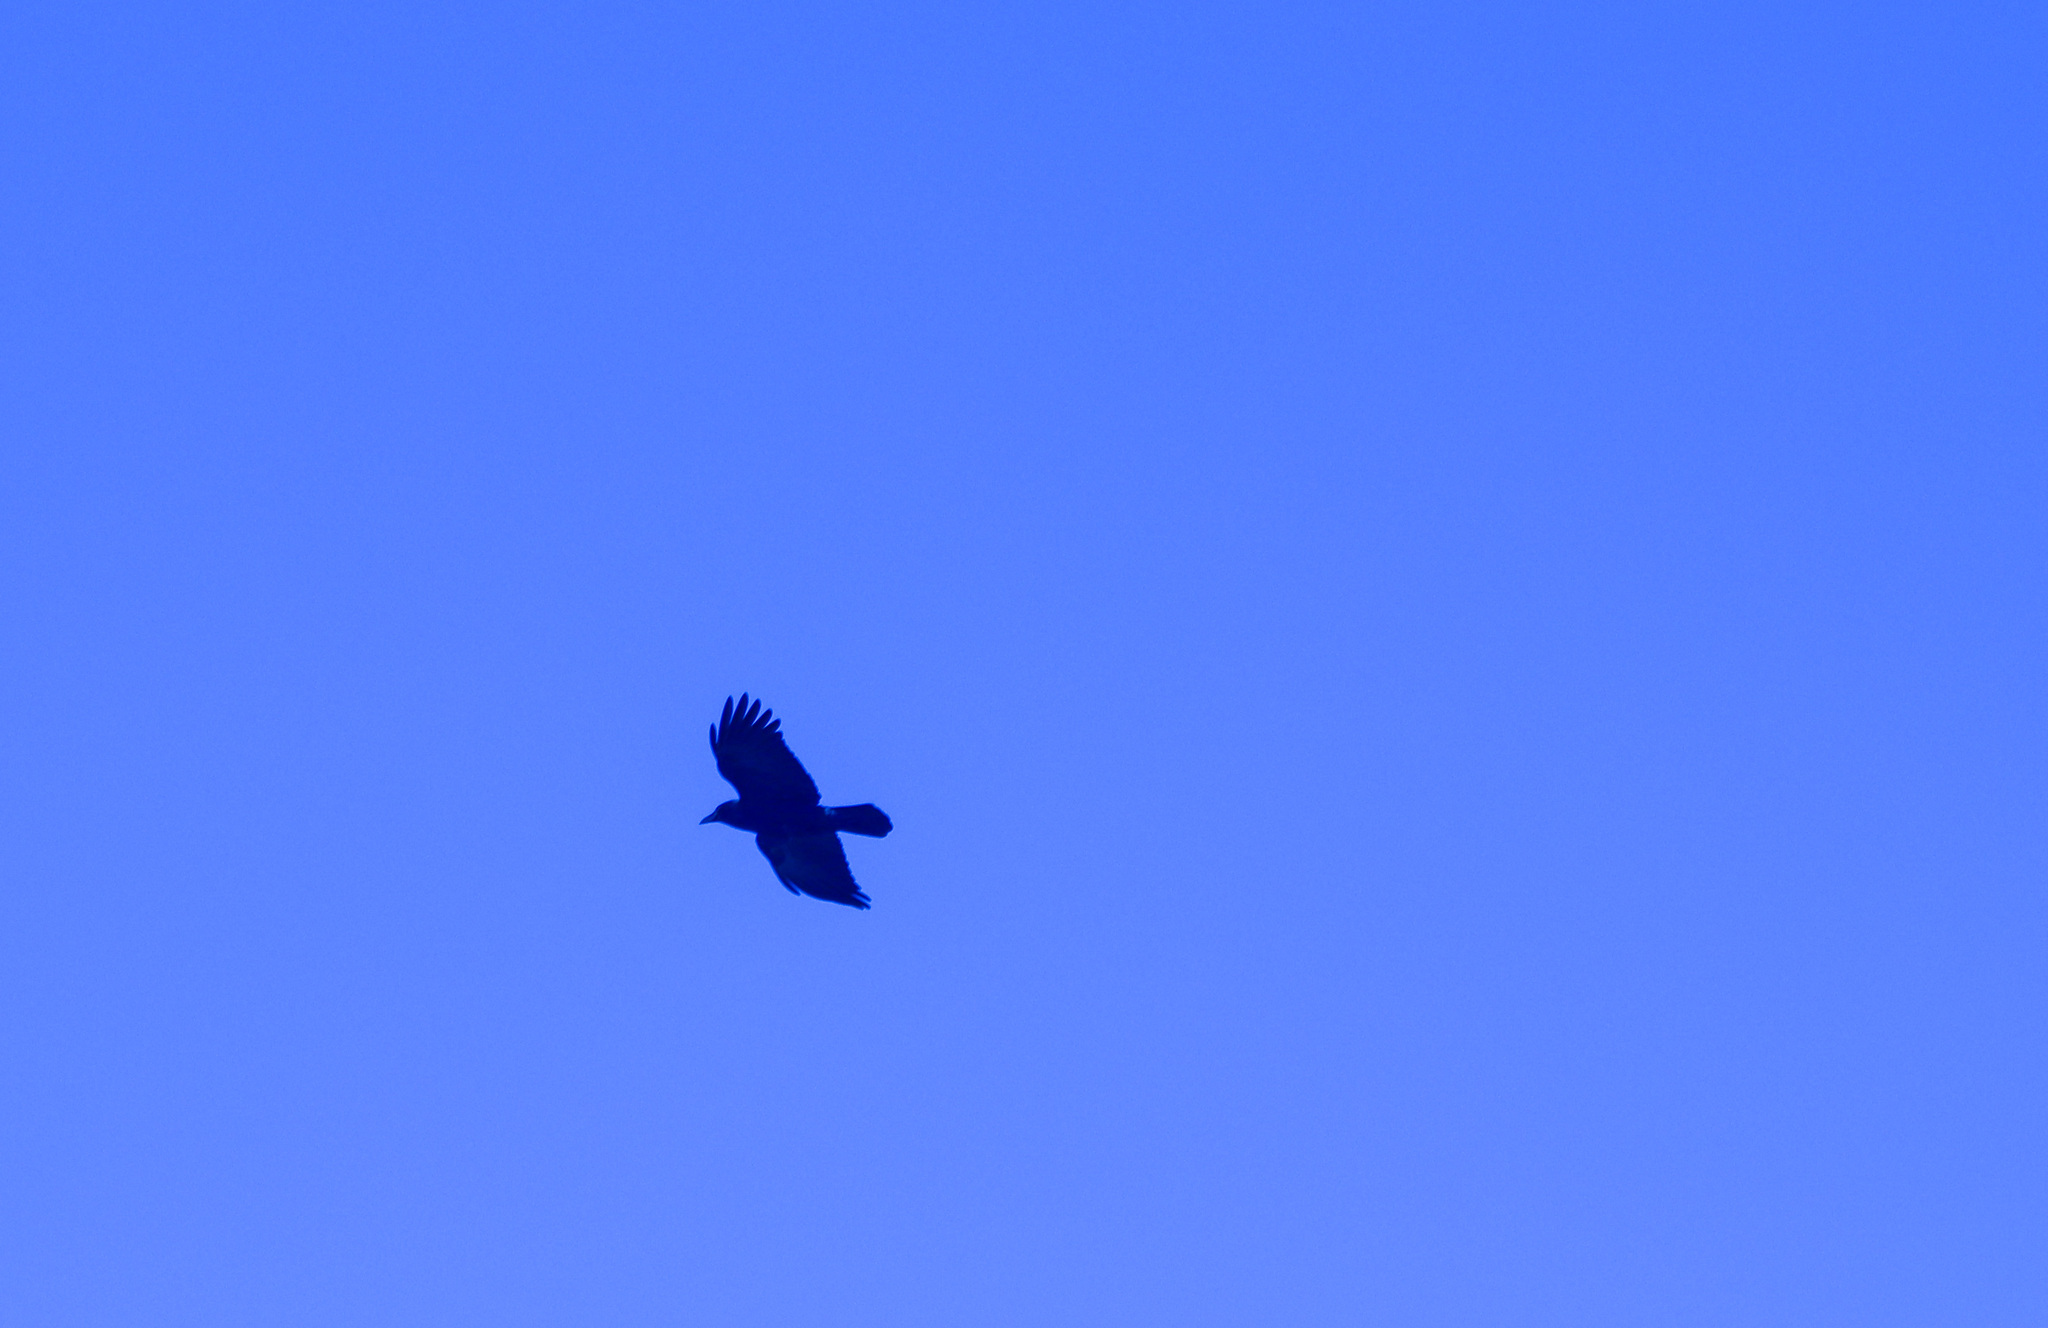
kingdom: Animalia
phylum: Chordata
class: Aves
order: Passeriformes
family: Corvidae
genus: Corvus
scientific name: Corvus brachyrhynchos
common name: American crow
